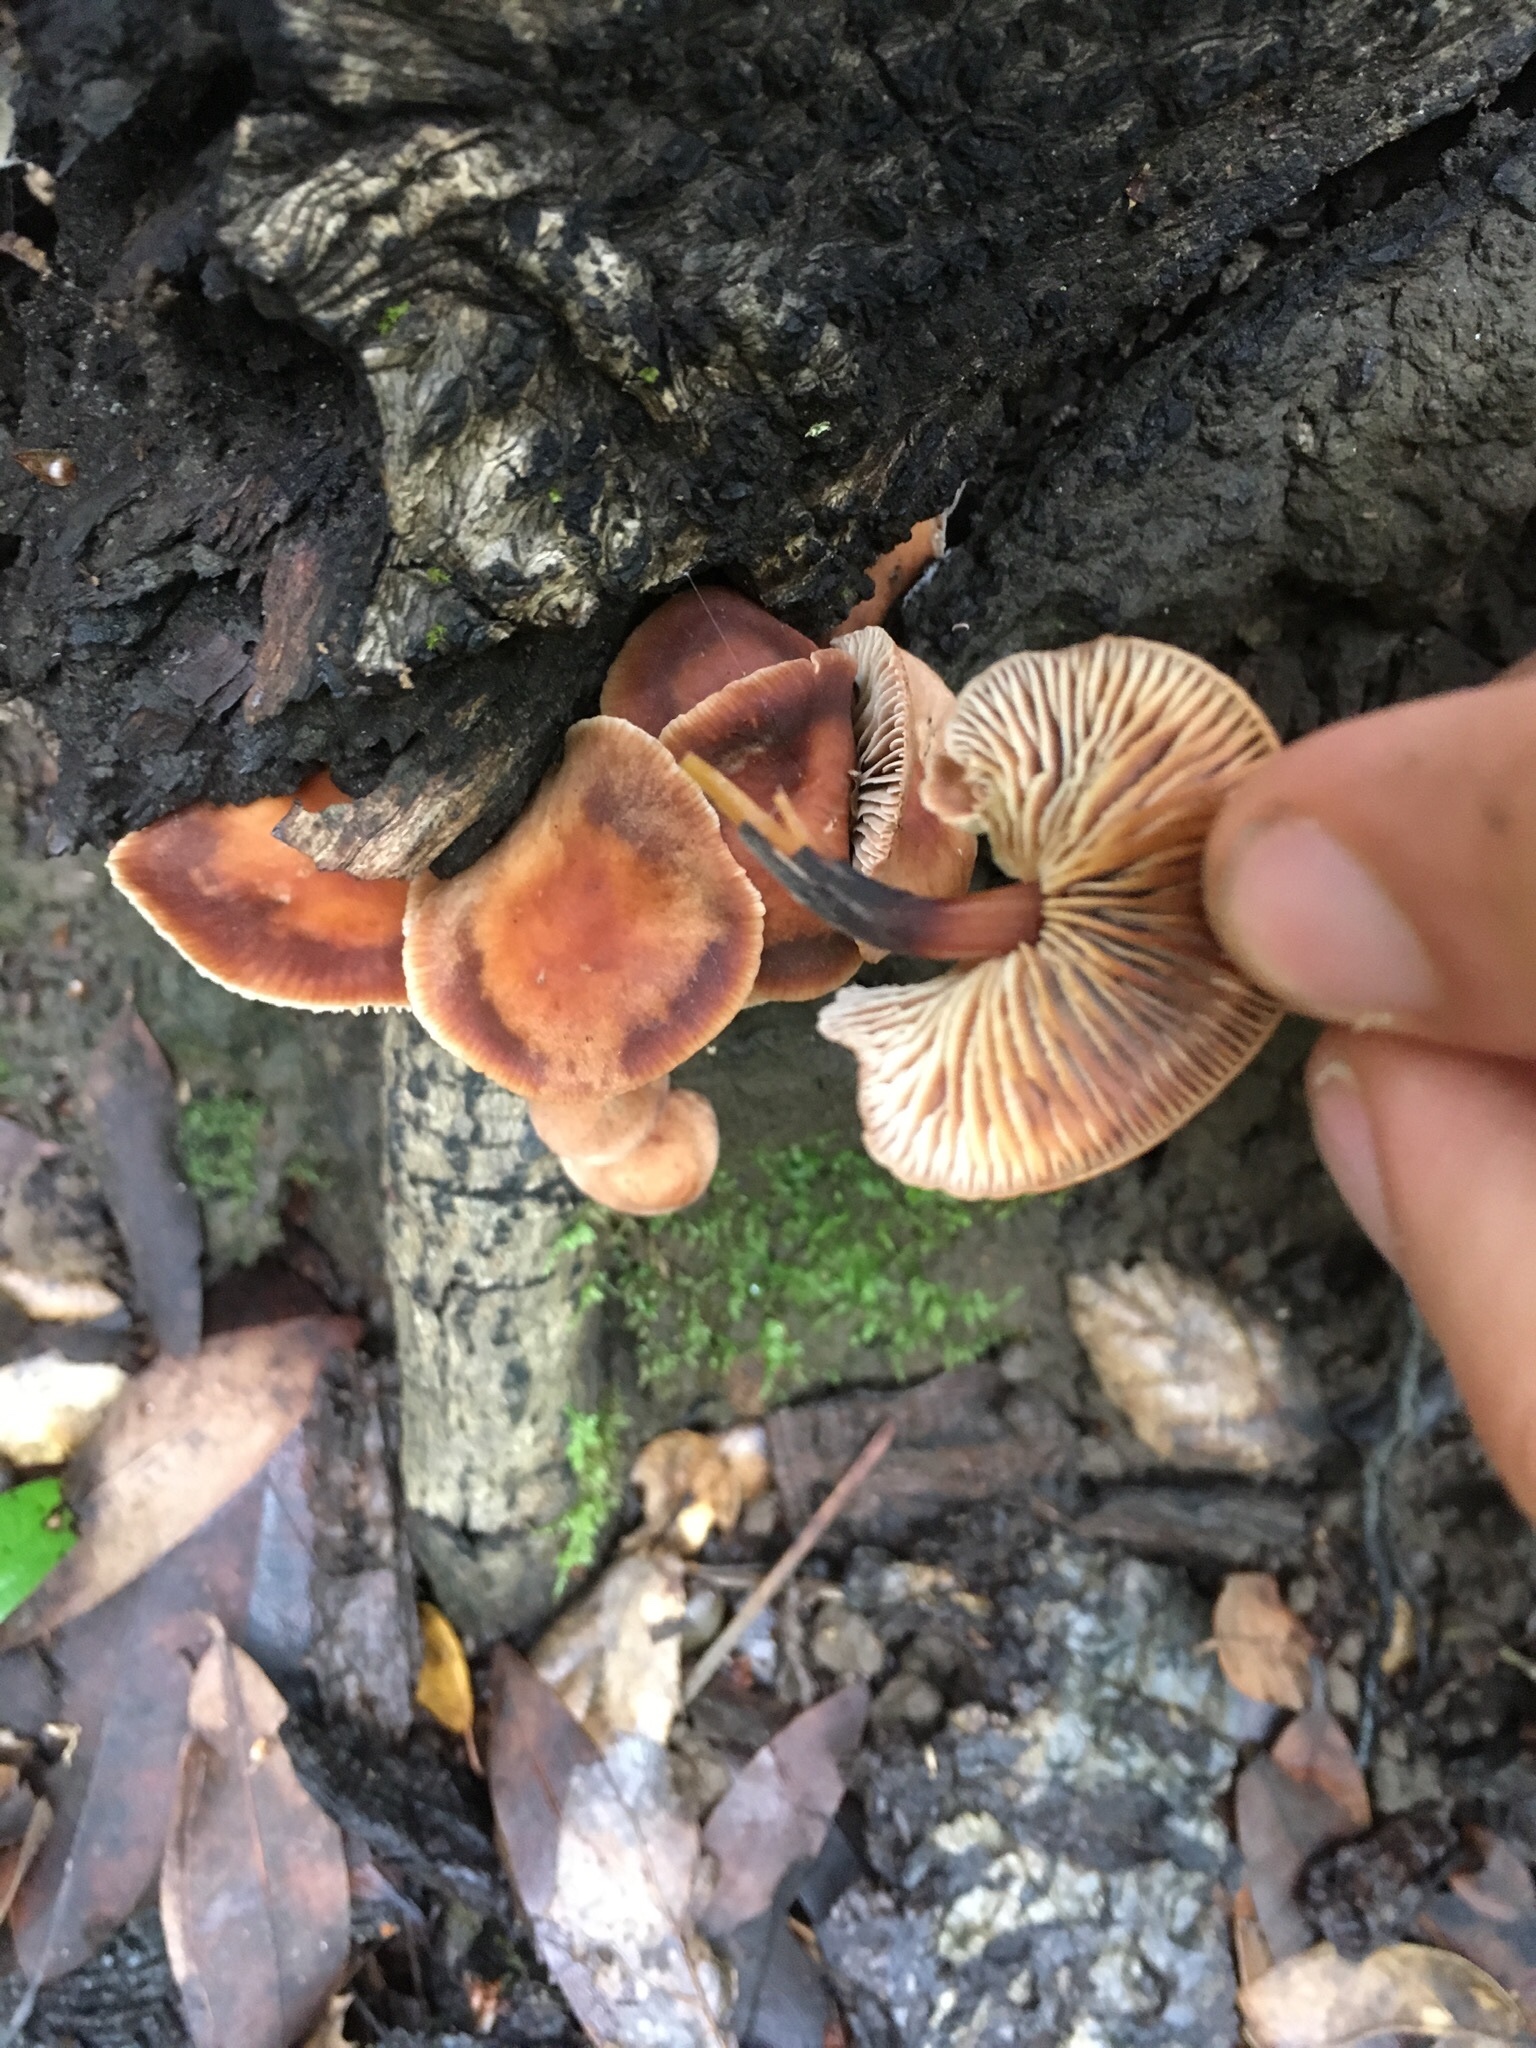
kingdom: Fungi
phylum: Basidiomycota
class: Agaricomycetes
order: Agaricales
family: Omphalotaceae
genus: Gymnopus
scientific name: Gymnopus brassicolens
